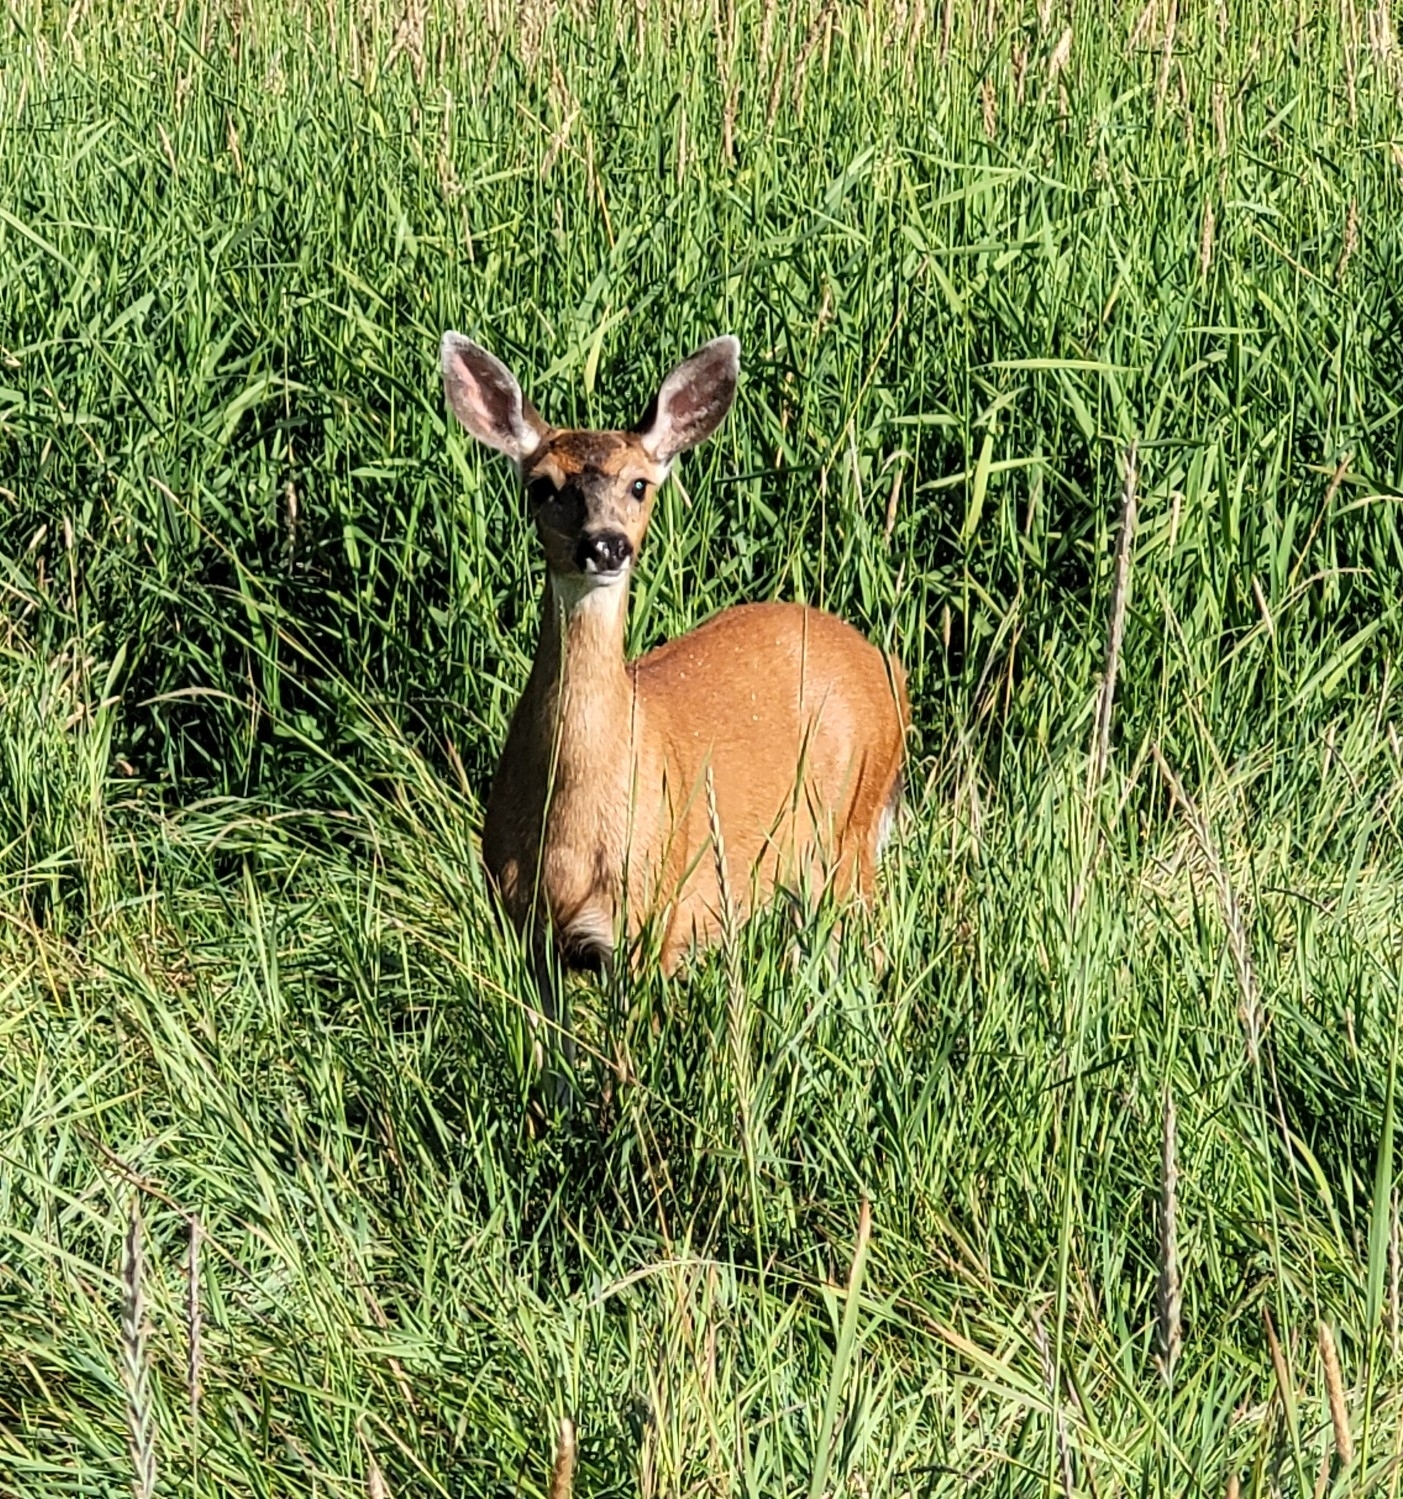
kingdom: Animalia
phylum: Chordata
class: Mammalia
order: Artiodactyla
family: Cervidae
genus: Odocoileus
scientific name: Odocoileus hemionus
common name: Mule deer
